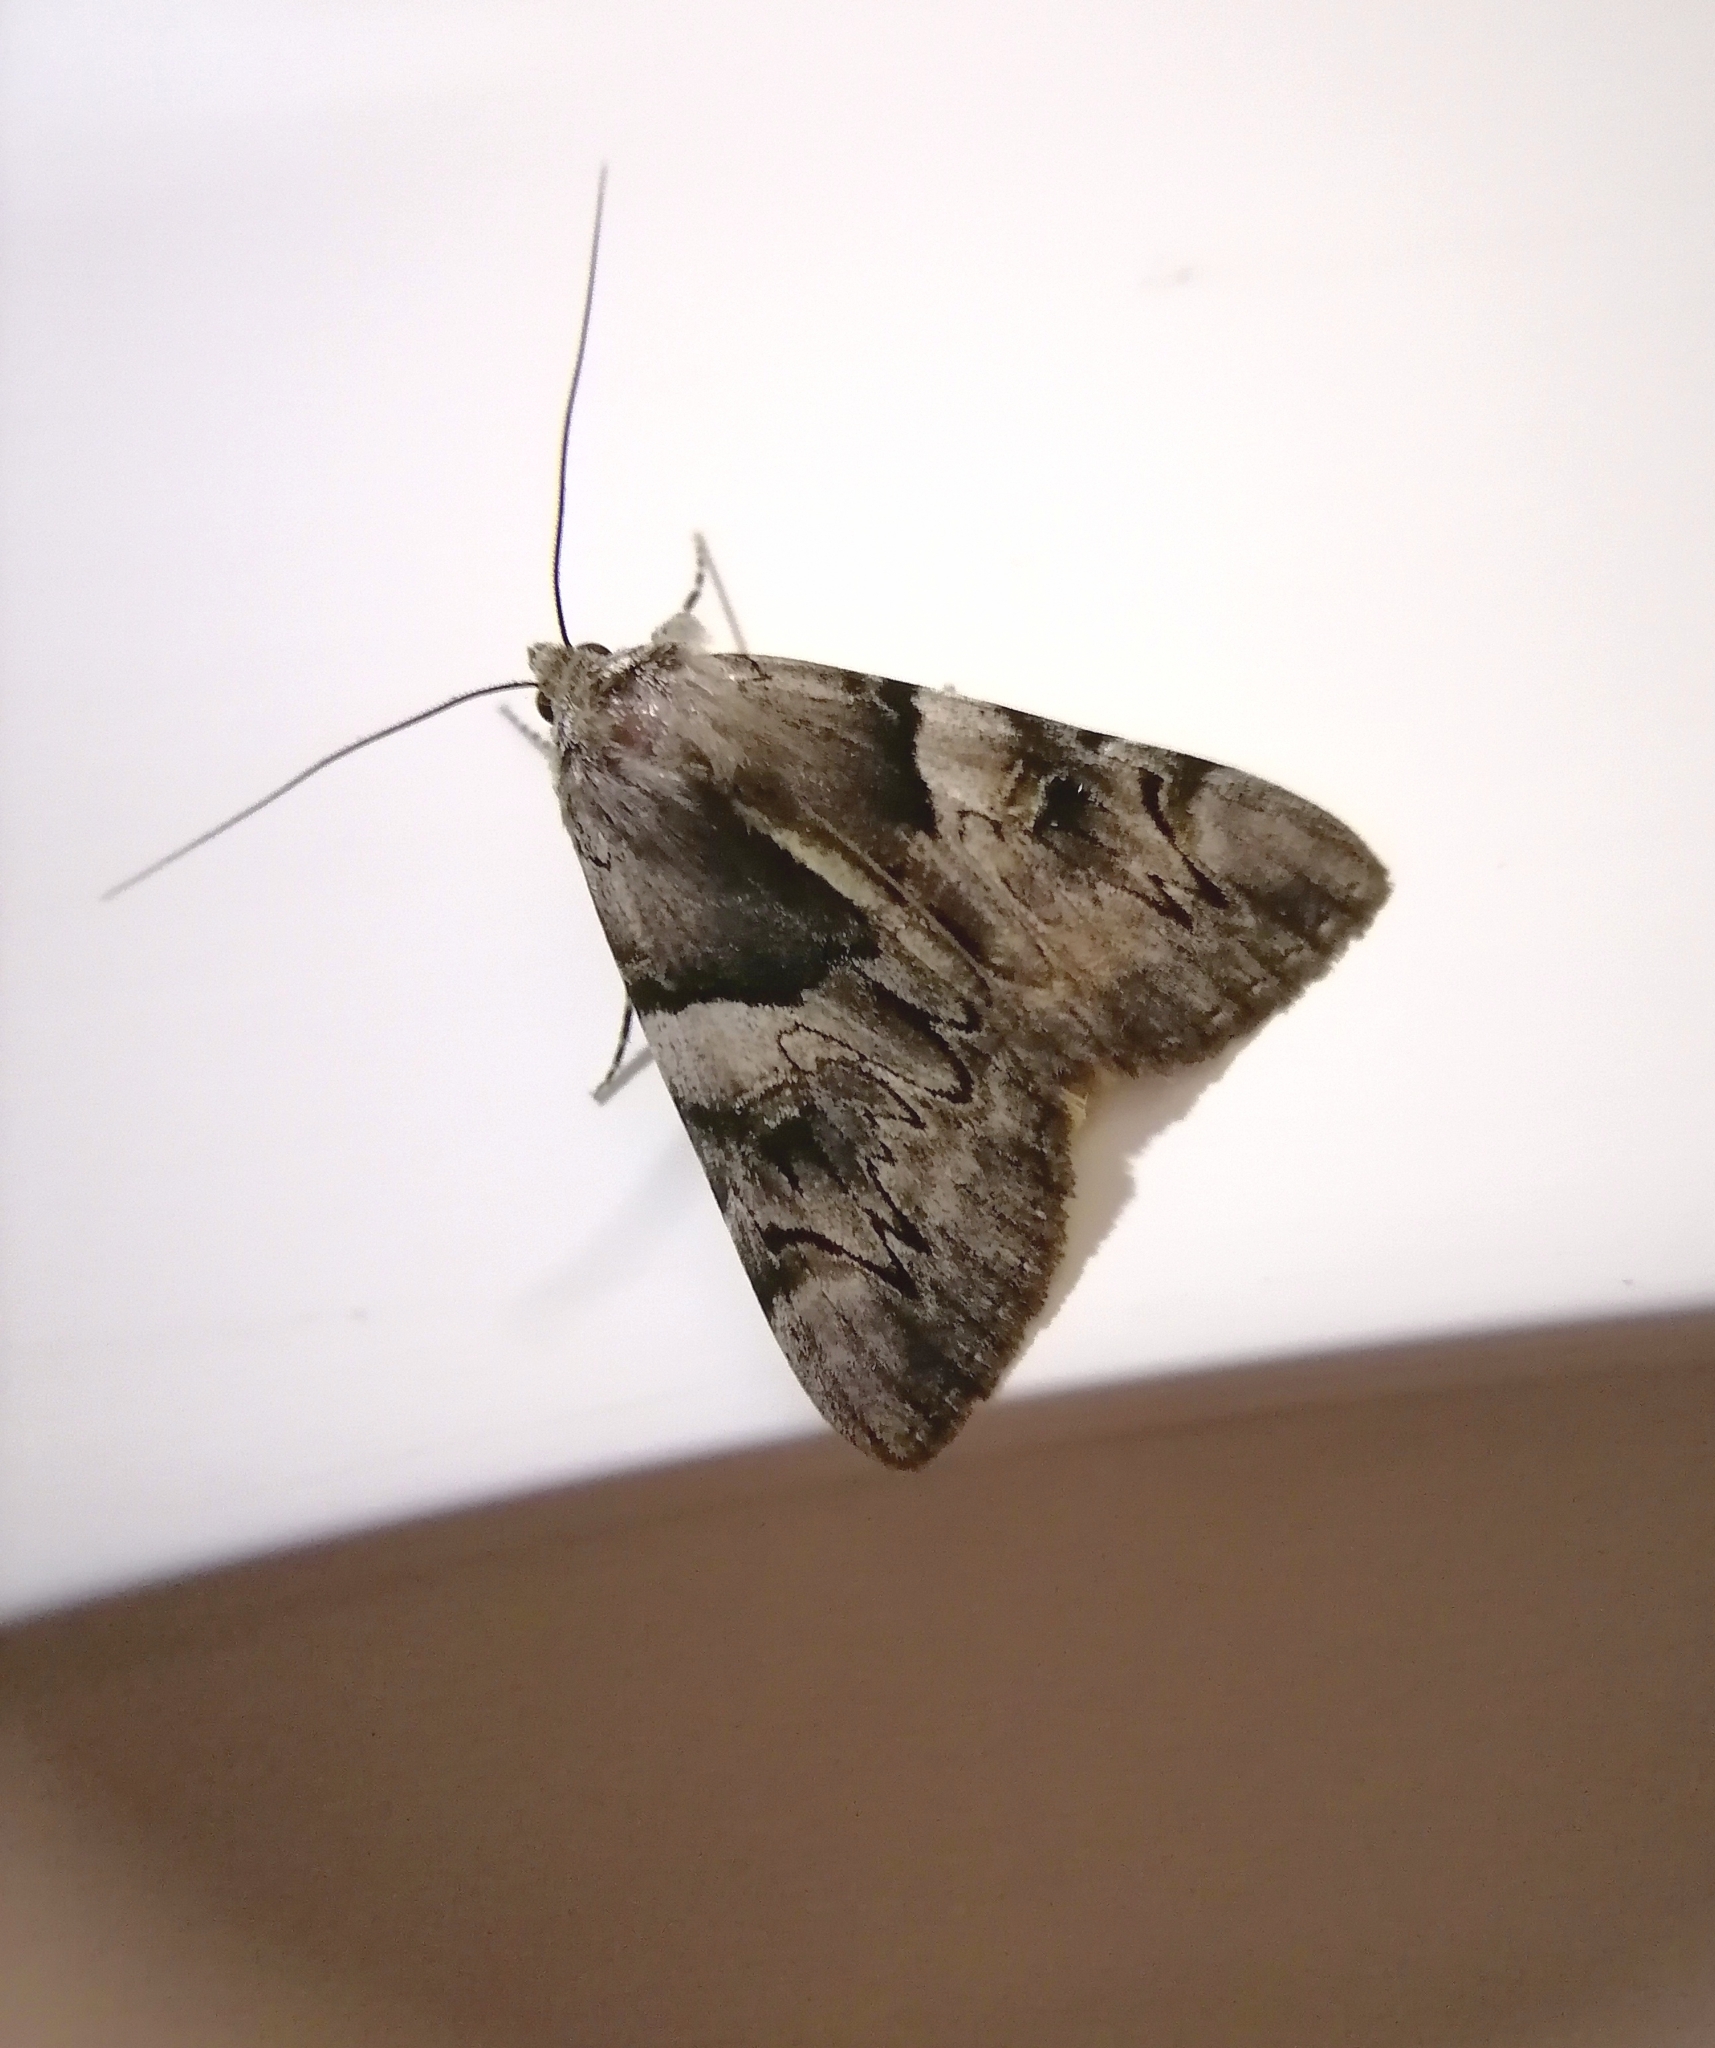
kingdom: Animalia
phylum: Arthropoda
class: Insecta
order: Lepidoptera
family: Erebidae
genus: Catocala
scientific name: Catocala fulminea
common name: Yellow bands underwing
